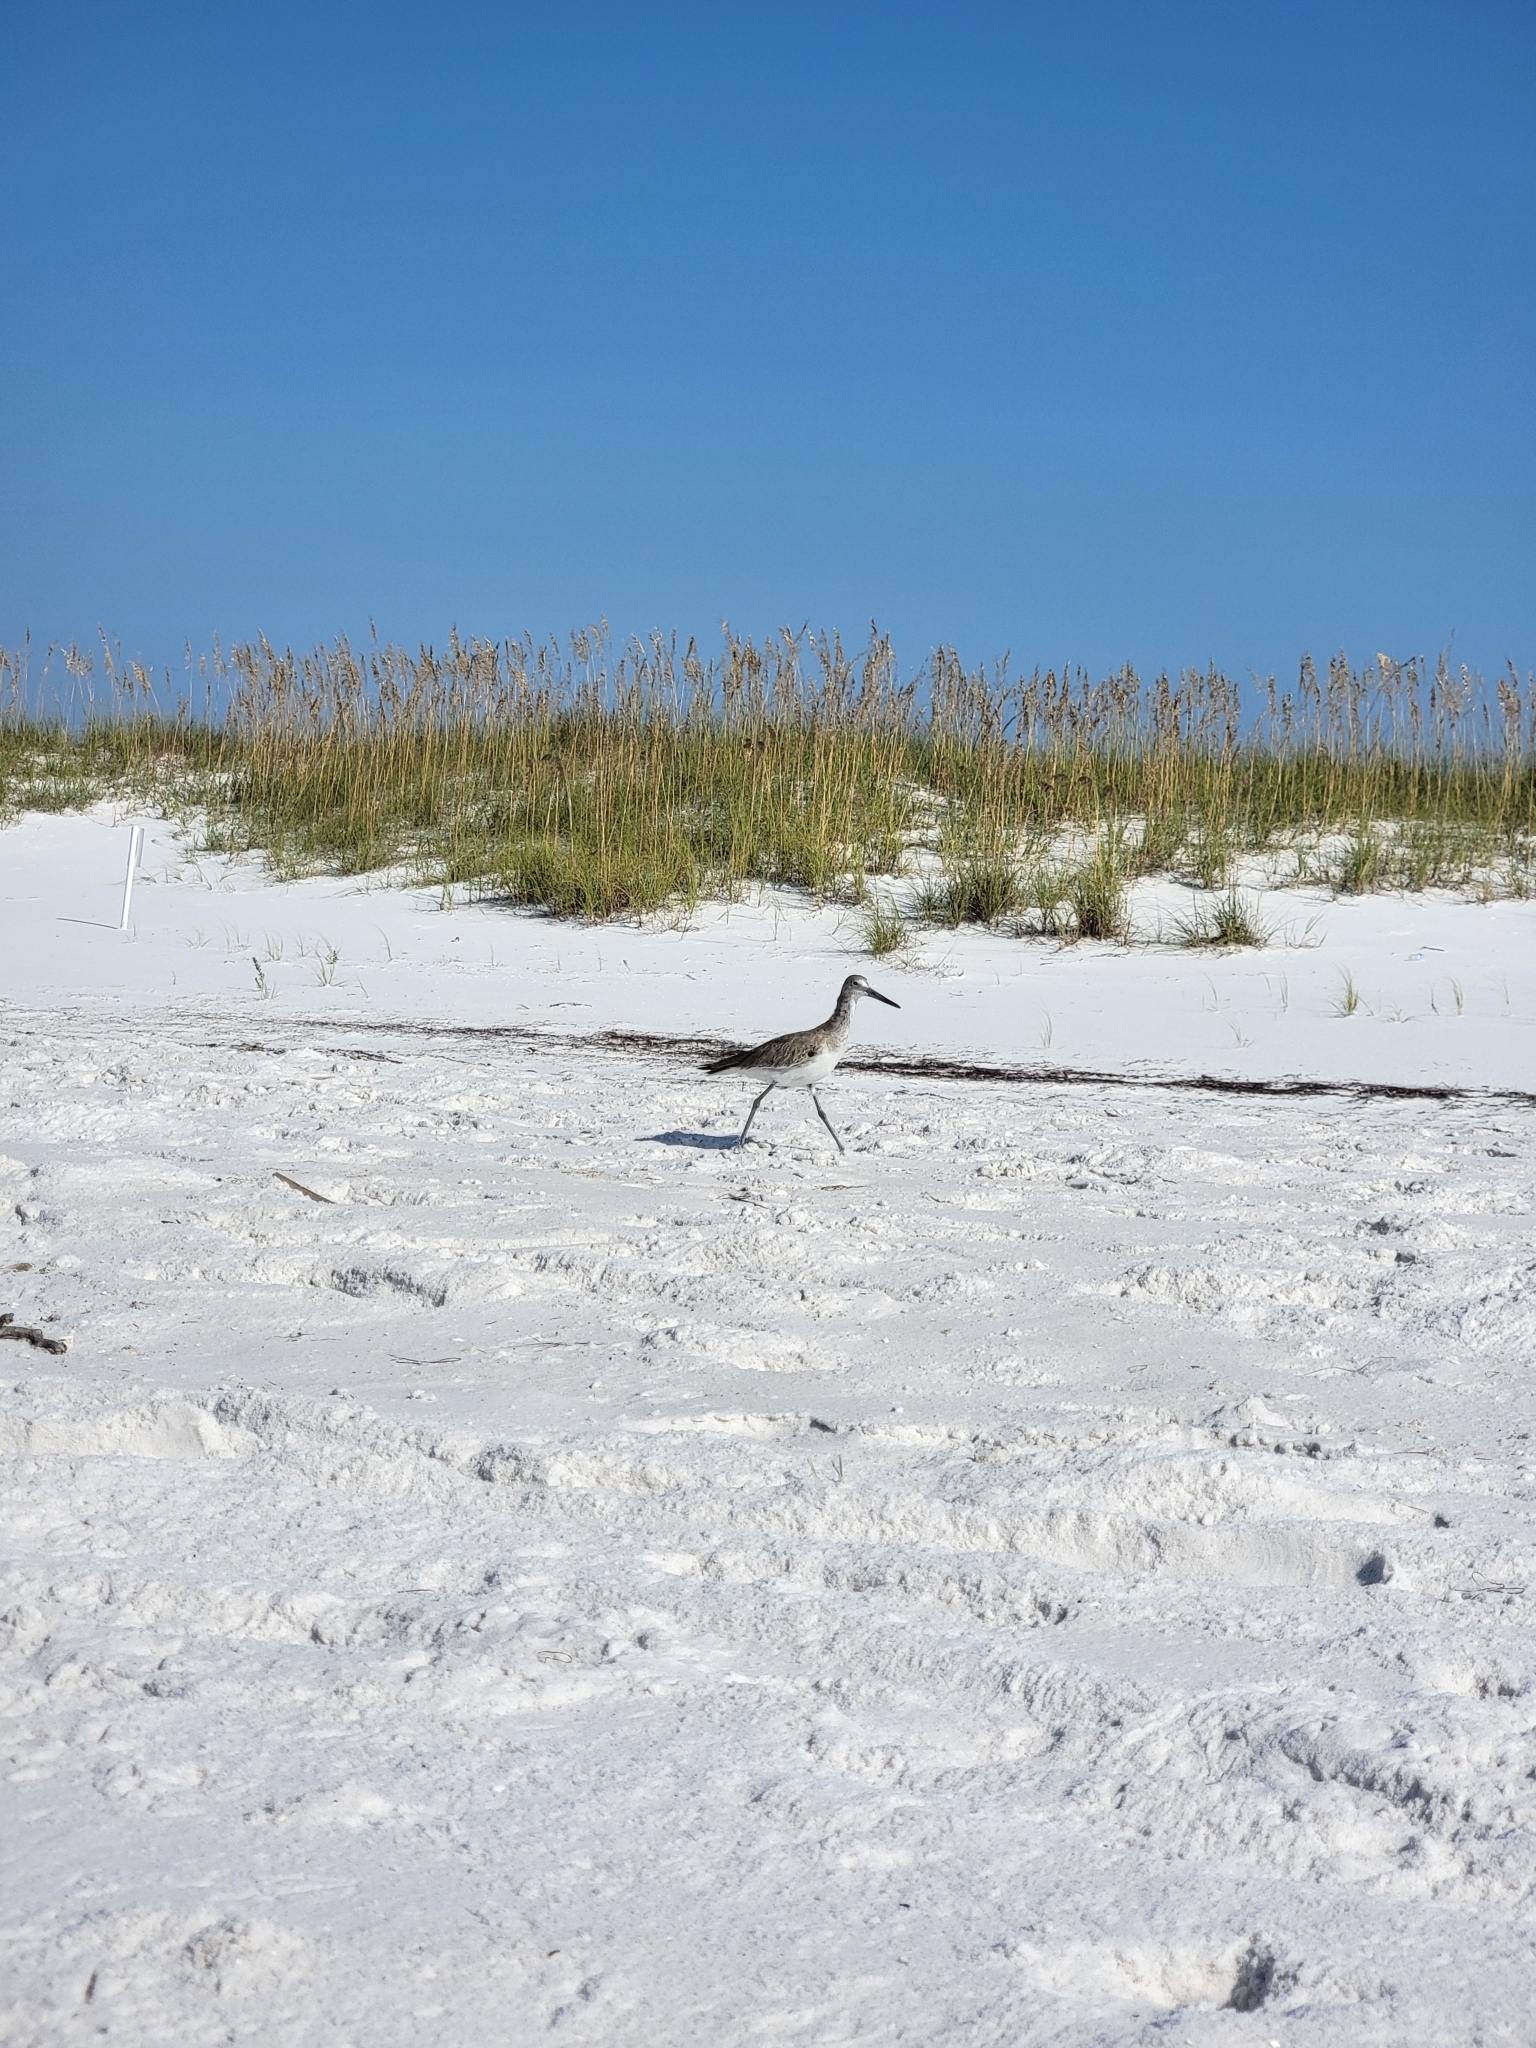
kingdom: Animalia
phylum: Chordata
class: Aves
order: Charadriiformes
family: Scolopacidae
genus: Tringa
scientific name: Tringa semipalmata
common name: Willet
